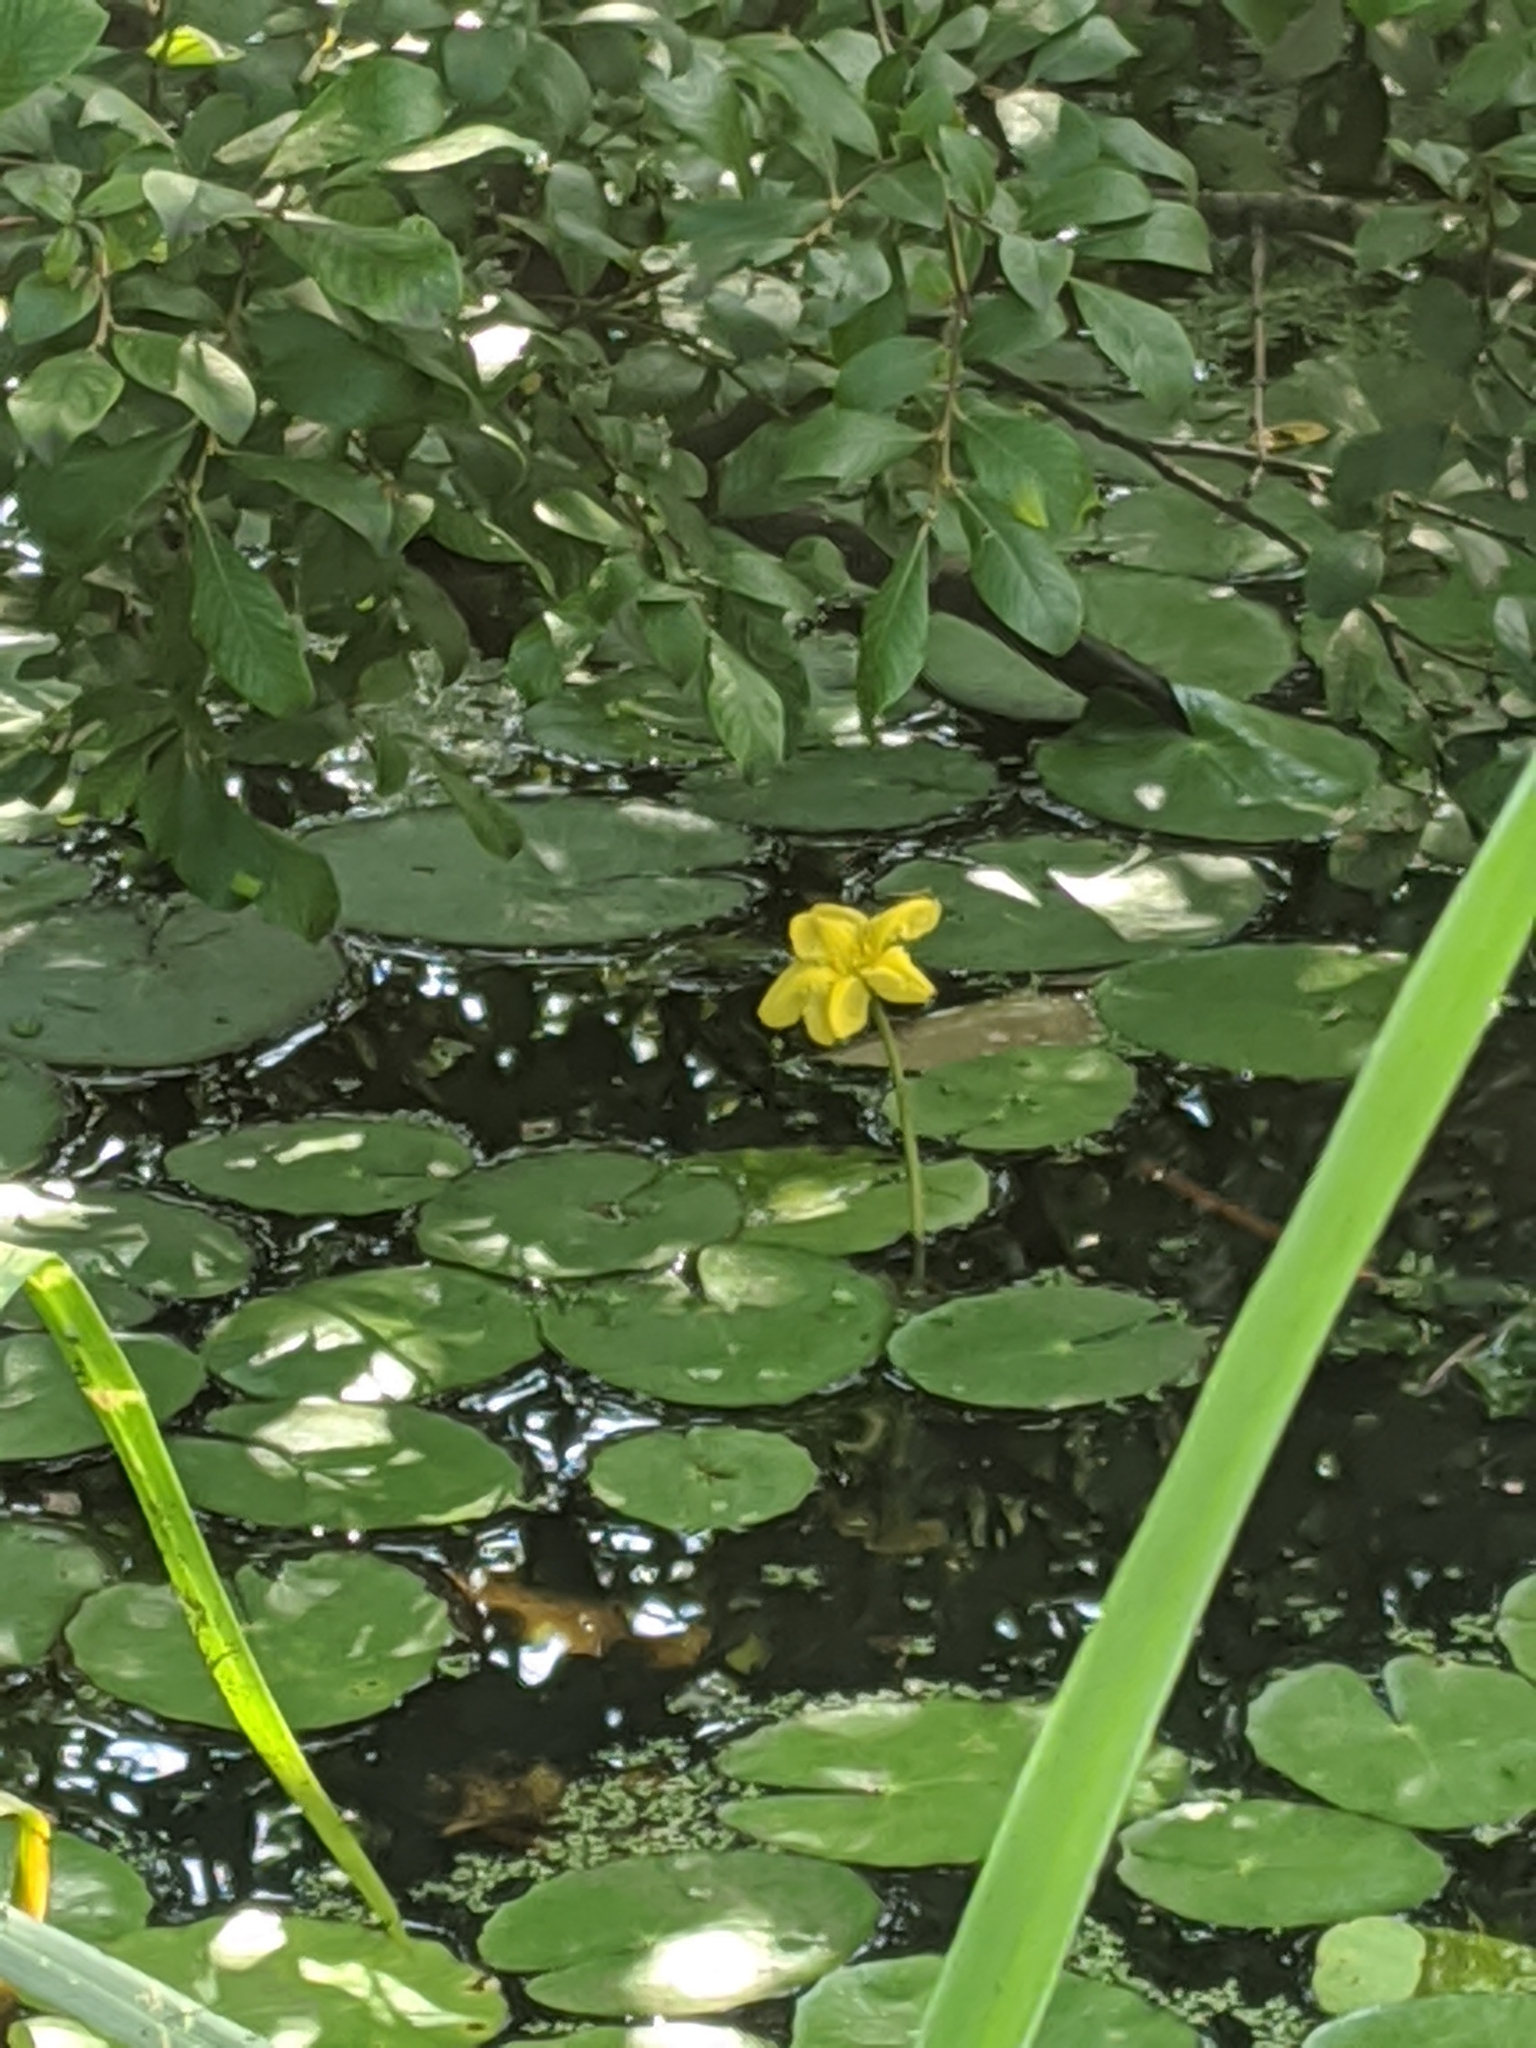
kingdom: Plantae
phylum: Tracheophyta
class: Magnoliopsida
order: Asterales
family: Menyanthaceae
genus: Nymphoides
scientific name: Nymphoides peltata
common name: Fringed water-lily
